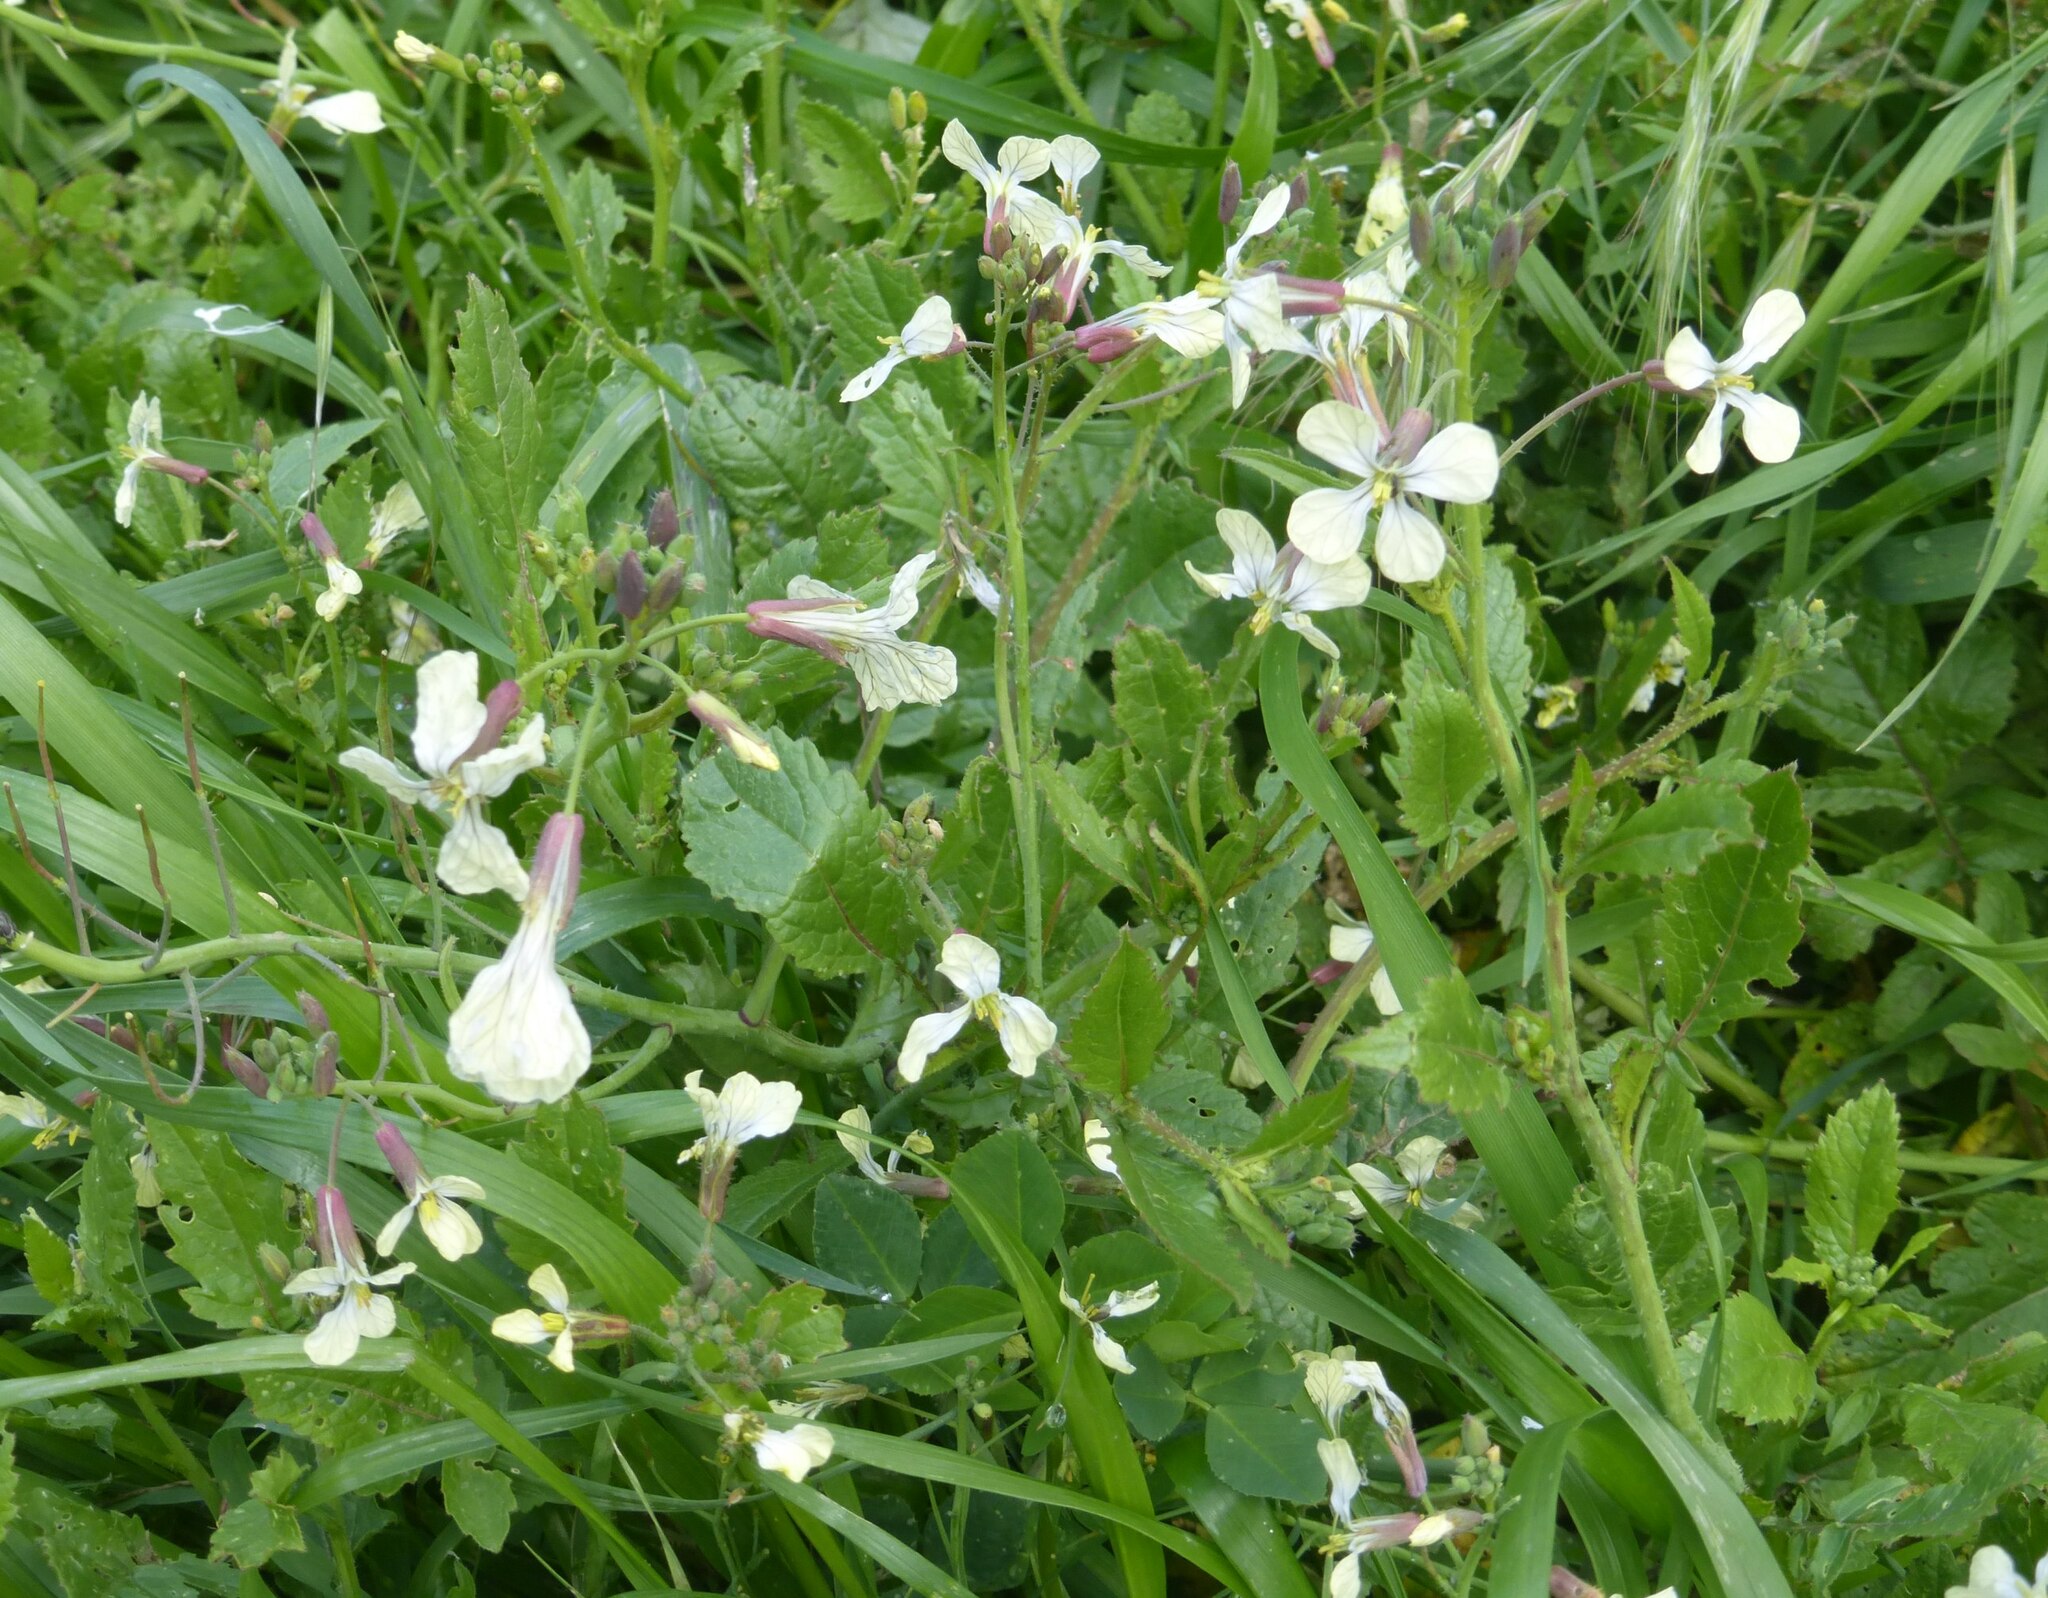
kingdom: Plantae
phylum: Tracheophyta
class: Magnoliopsida
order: Brassicales
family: Brassicaceae
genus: Raphanus
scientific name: Raphanus raphanistrum
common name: Wild radish
